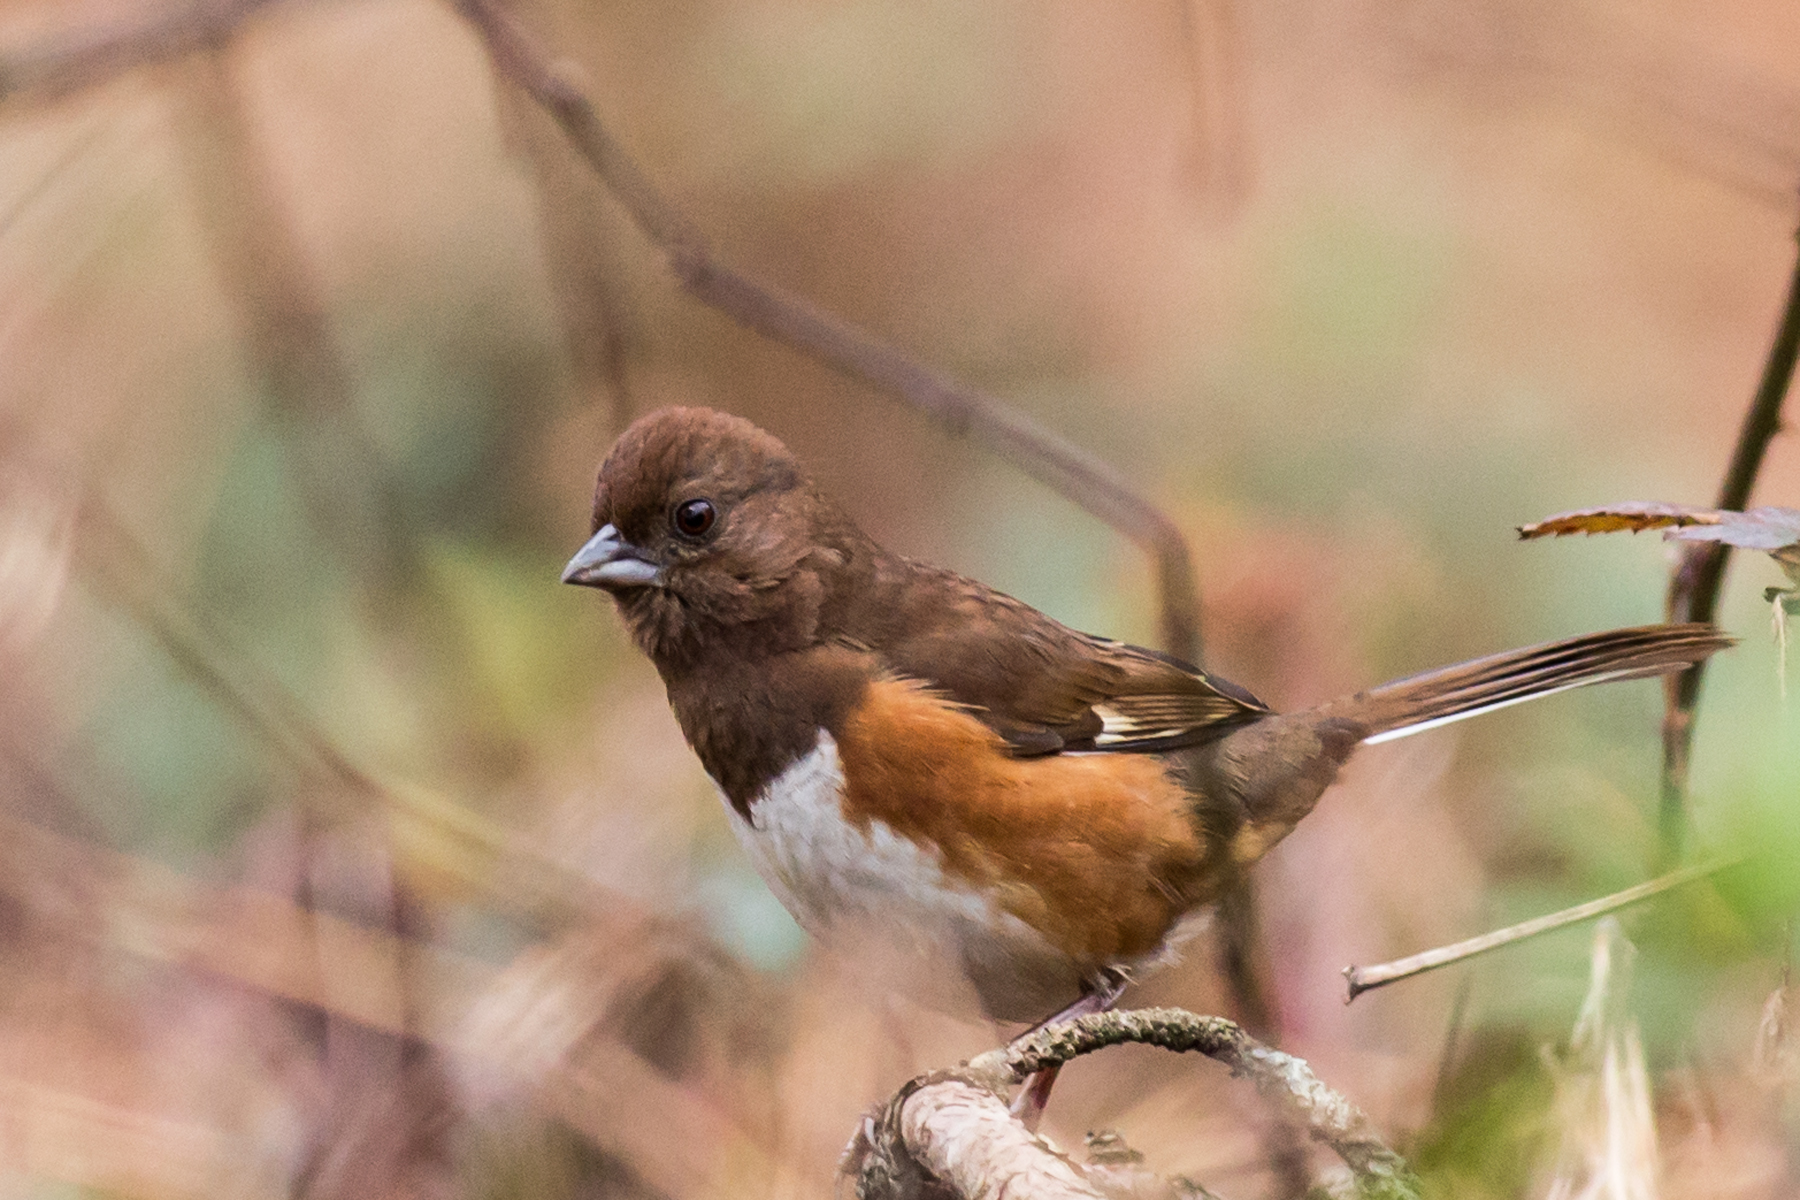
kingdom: Animalia
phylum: Chordata
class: Aves
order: Passeriformes
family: Passerellidae
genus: Pipilo
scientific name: Pipilo erythrophthalmus
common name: Eastern towhee
